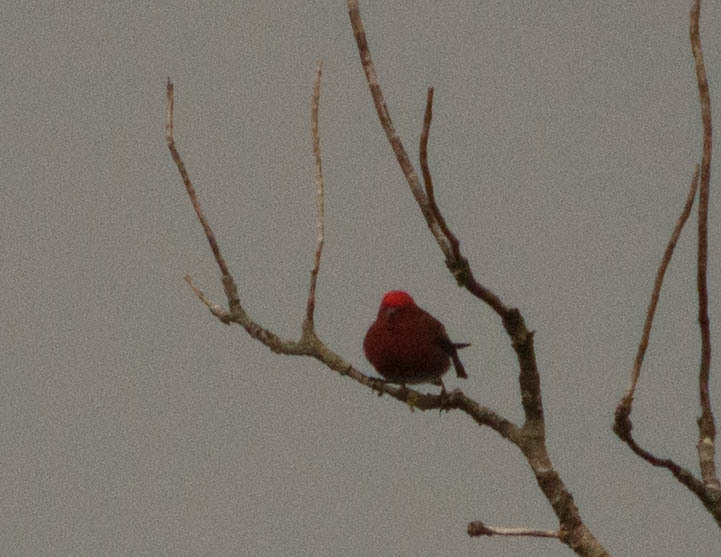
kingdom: Animalia
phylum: Chordata
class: Aves
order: Passeriformes
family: Fringillidae
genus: Himatione
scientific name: Himatione sanguinea
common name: Apapane
